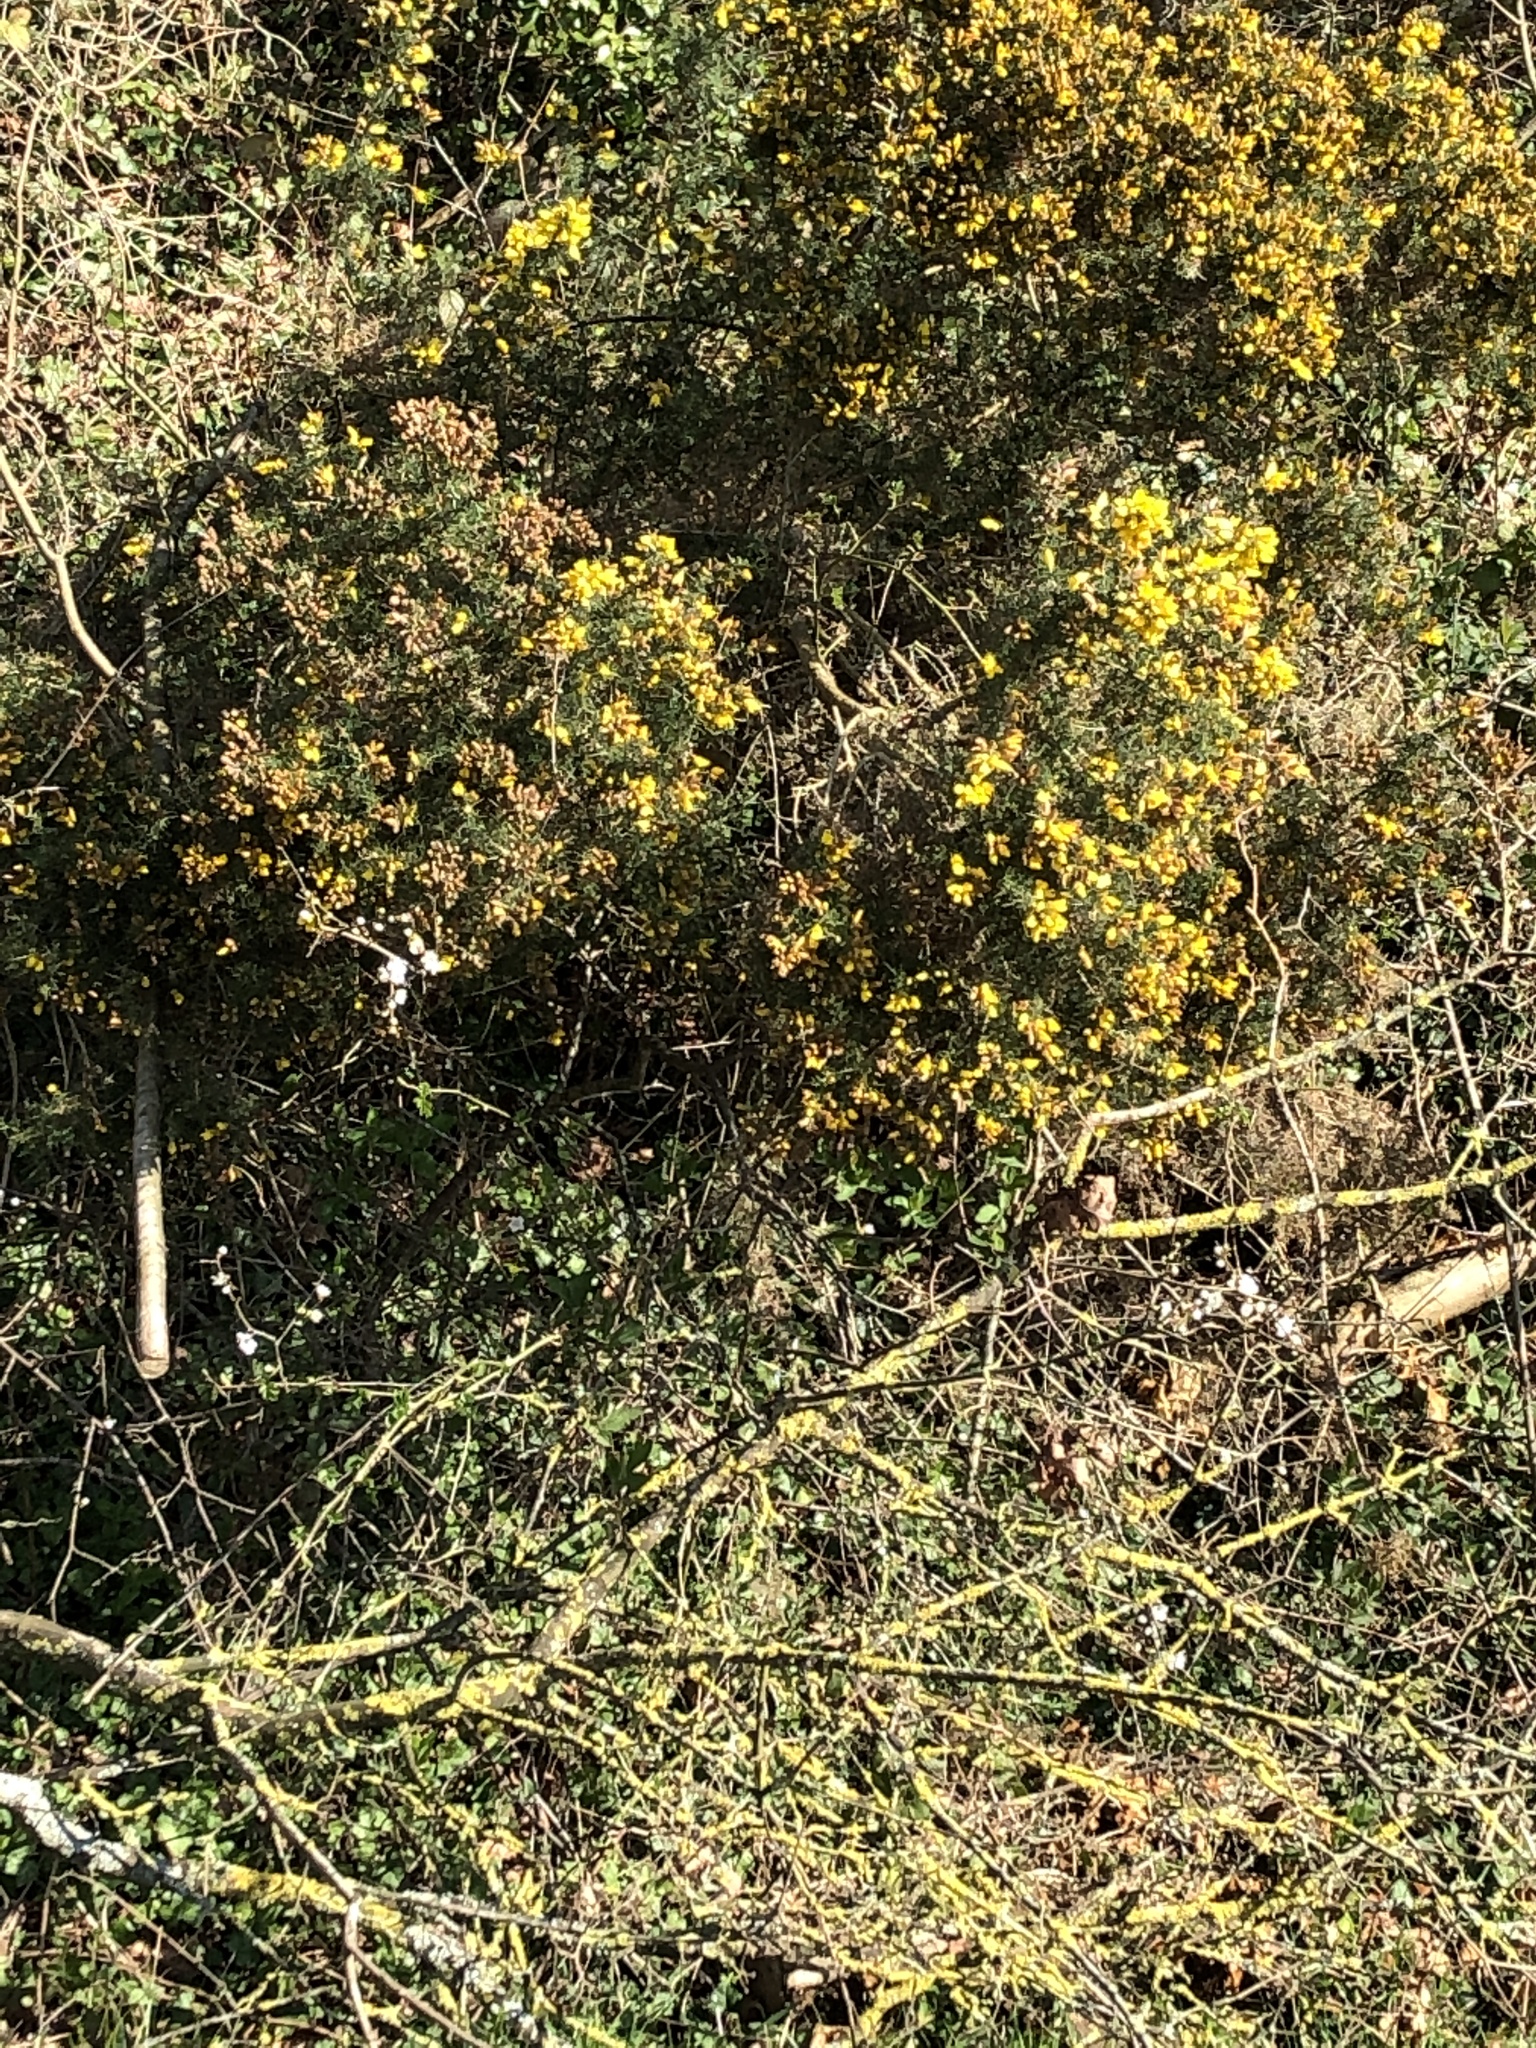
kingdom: Plantae
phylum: Tracheophyta
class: Magnoliopsida
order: Fabales
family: Fabaceae
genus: Ulex
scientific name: Ulex europaeus
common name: Common gorse
